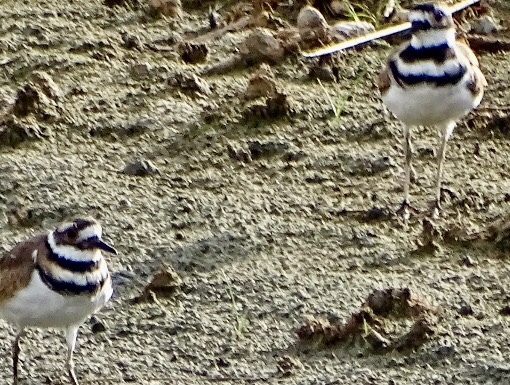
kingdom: Animalia
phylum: Chordata
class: Aves
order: Charadriiformes
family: Charadriidae
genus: Charadrius
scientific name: Charadrius vociferus
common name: Killdeer
